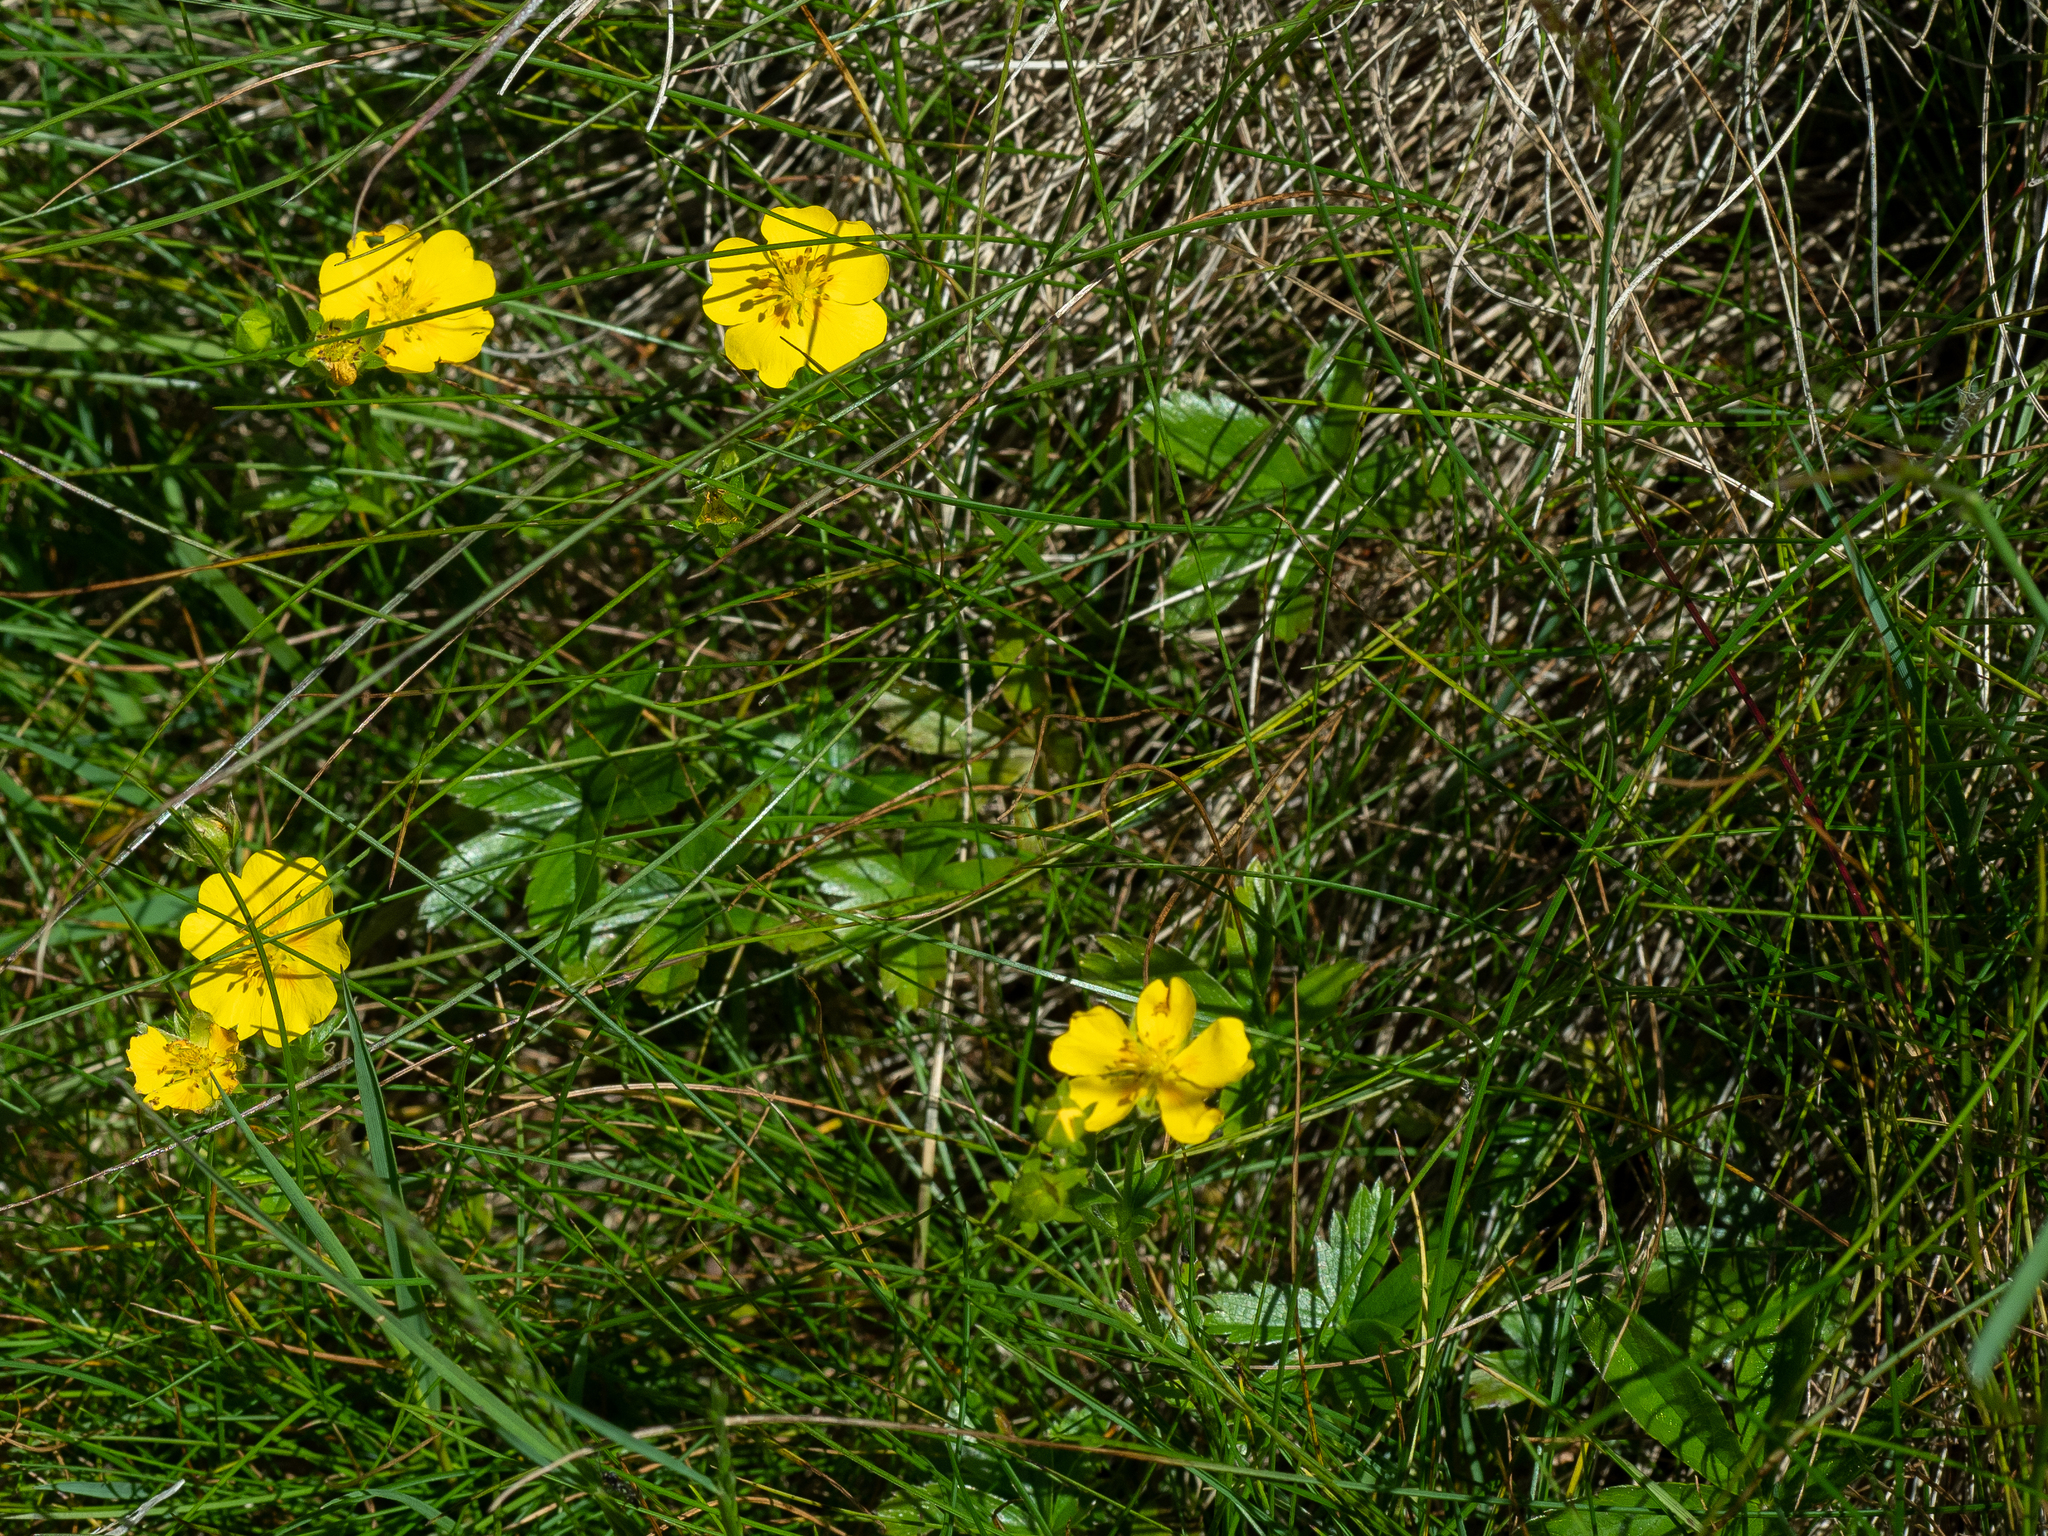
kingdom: Plantae
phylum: Tracheophyta
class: Magnoliopsida
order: Rosales
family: Rosaceae
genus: Potentilla
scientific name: Potentilla aurea
